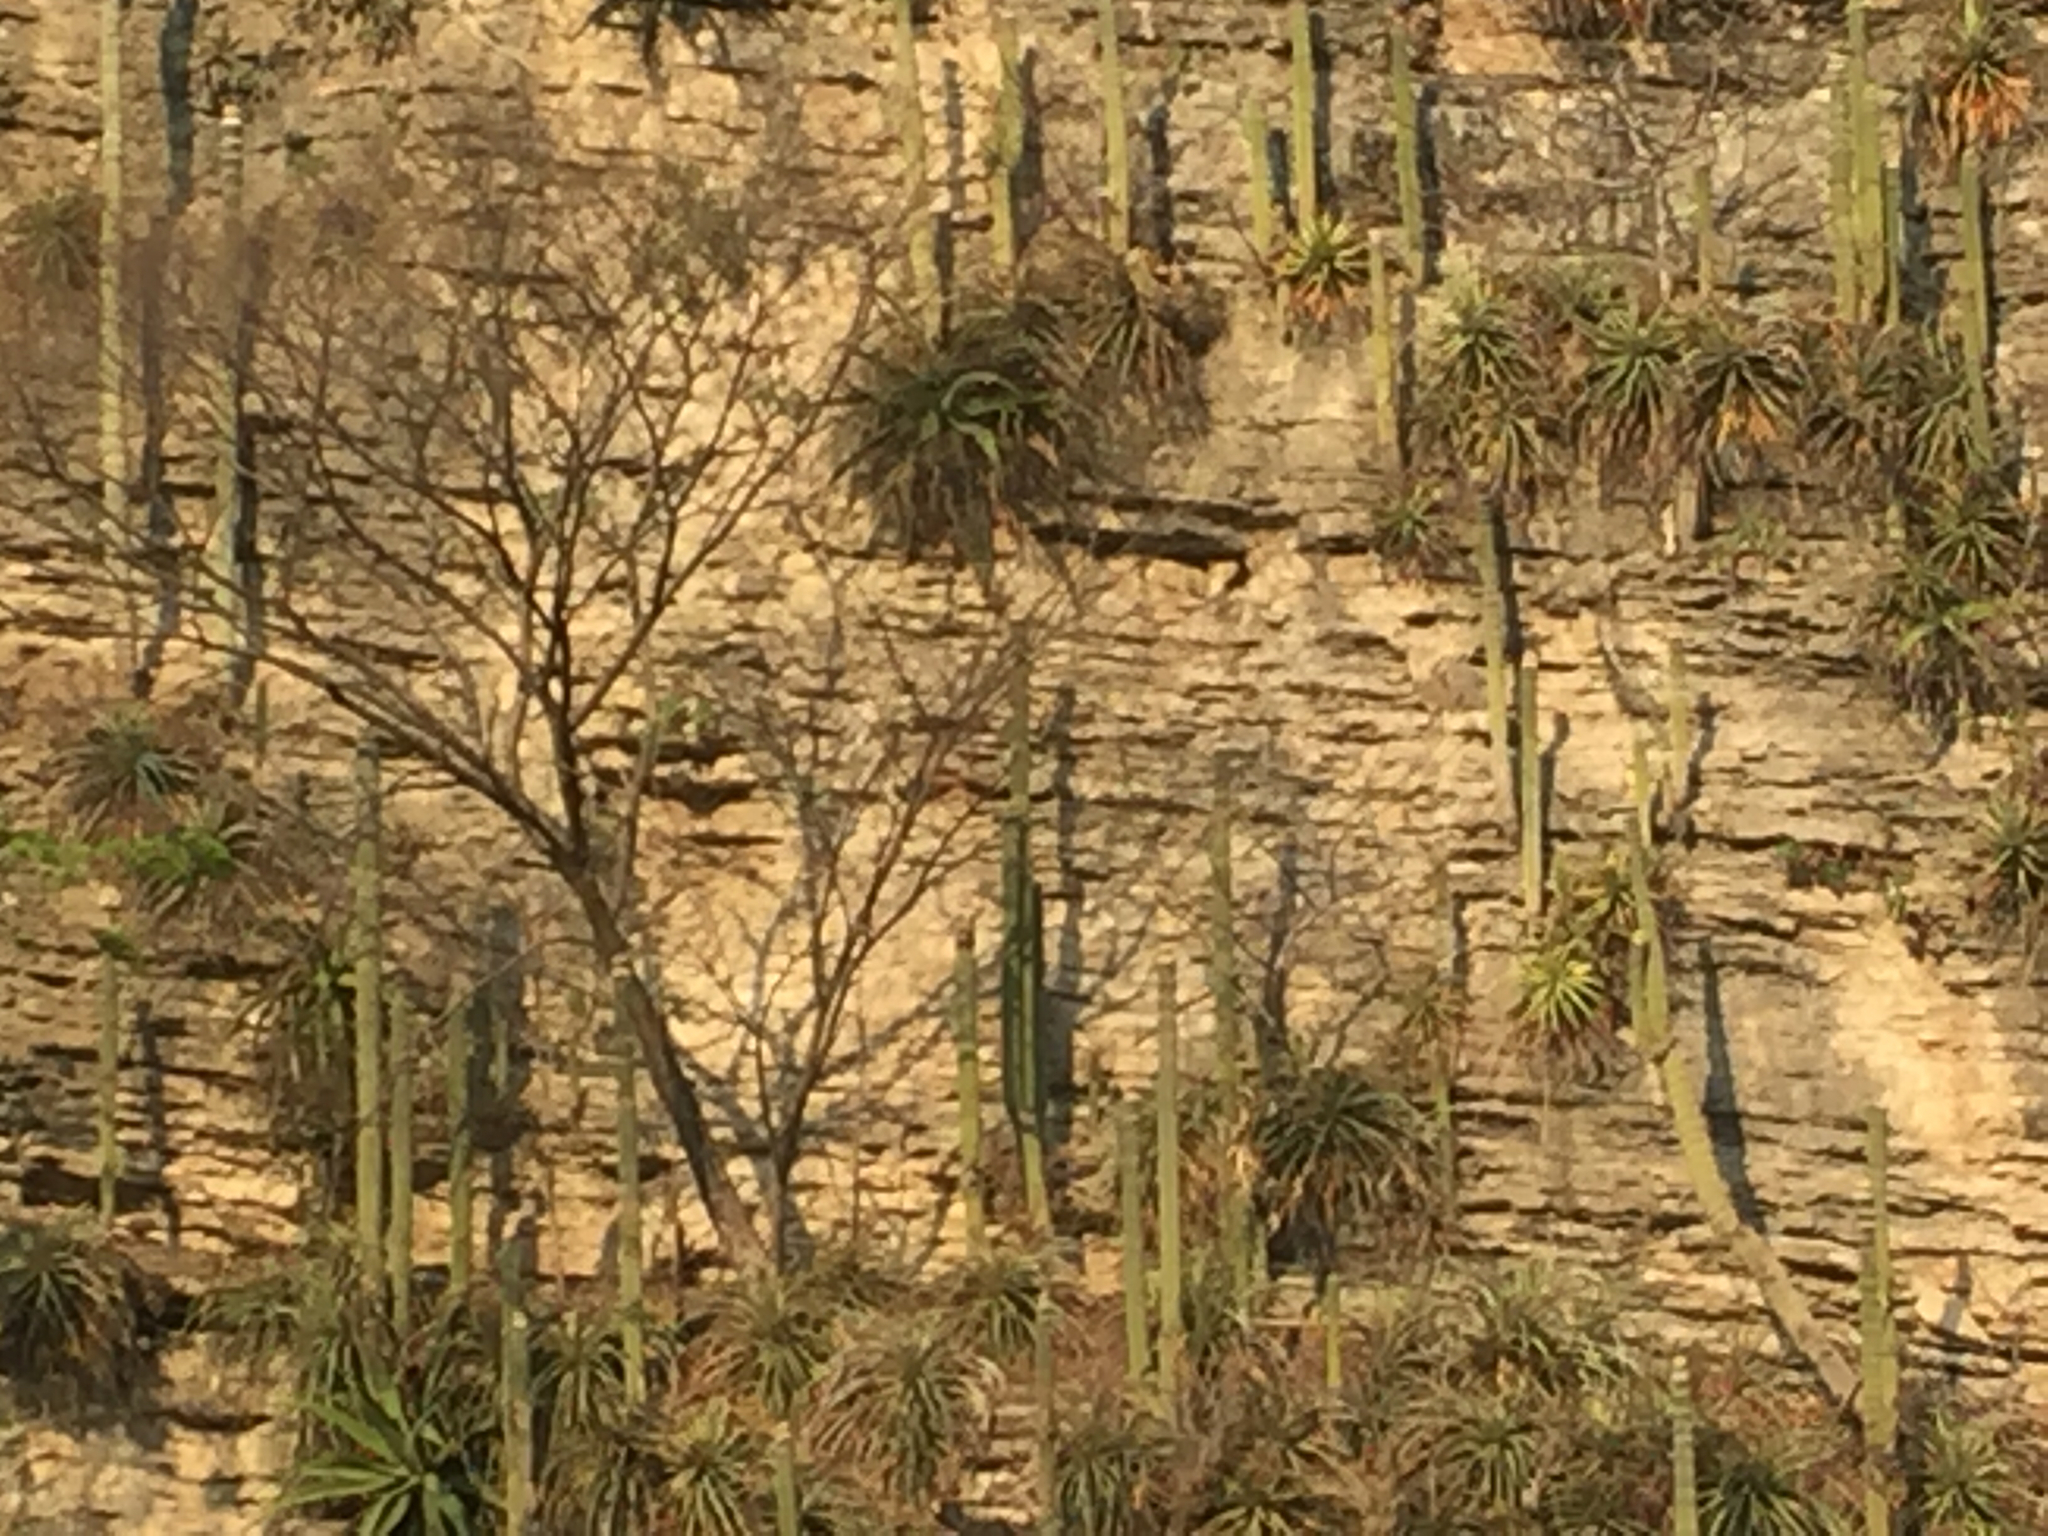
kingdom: Plantae
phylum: Tracheophyta
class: Magnoliopsida
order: Caryophyllales
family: Cactaceae
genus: Cephalocereus
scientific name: Cephalocereus apicicephalium
